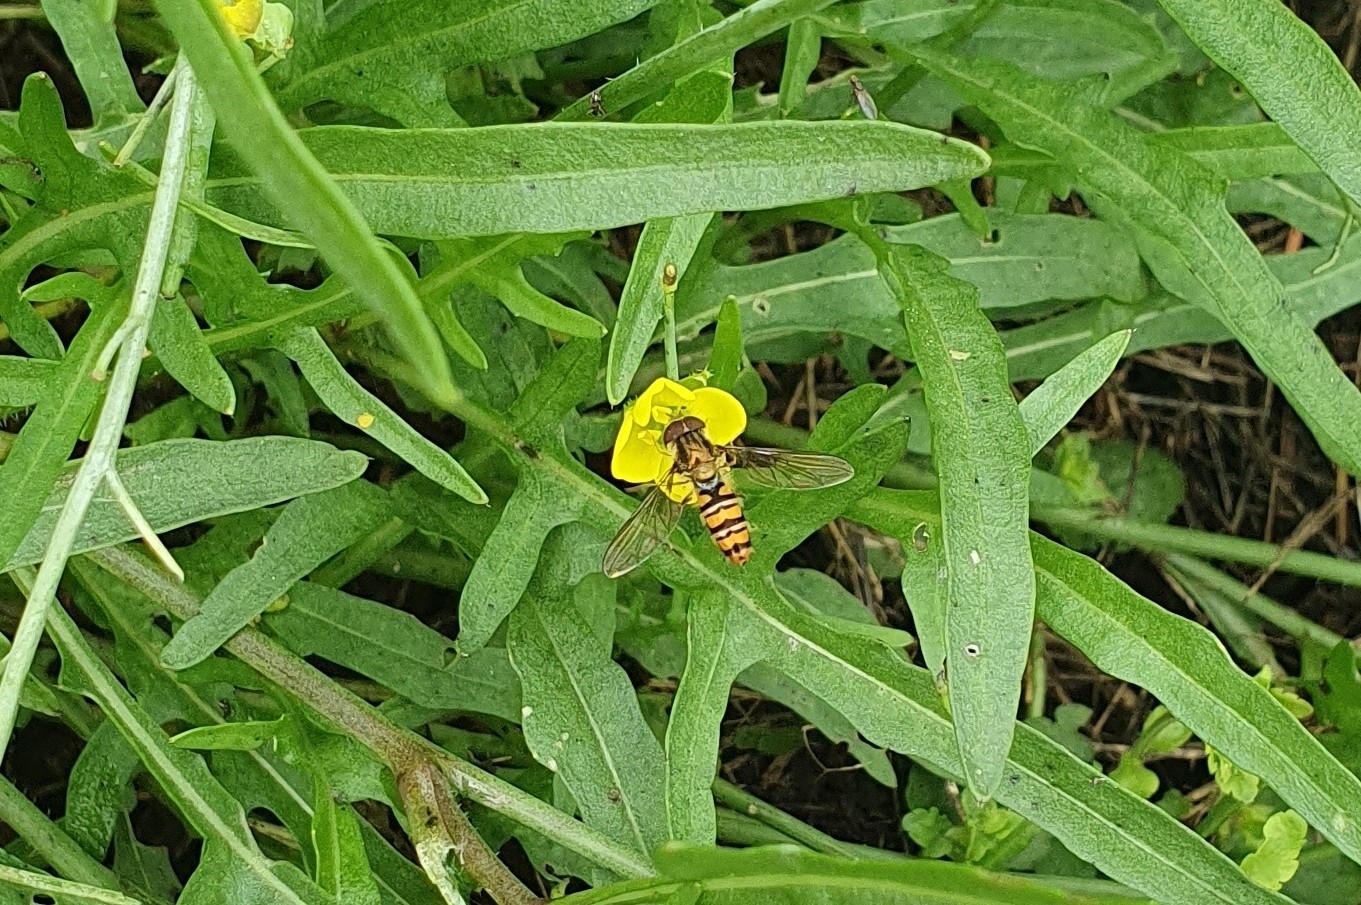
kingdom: Animalia
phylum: Arthropoda
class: Insecta
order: Diptera
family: Syrphidae
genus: Episyrphus
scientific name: Episyrphus balteatus
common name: Marmalade hoverfly
